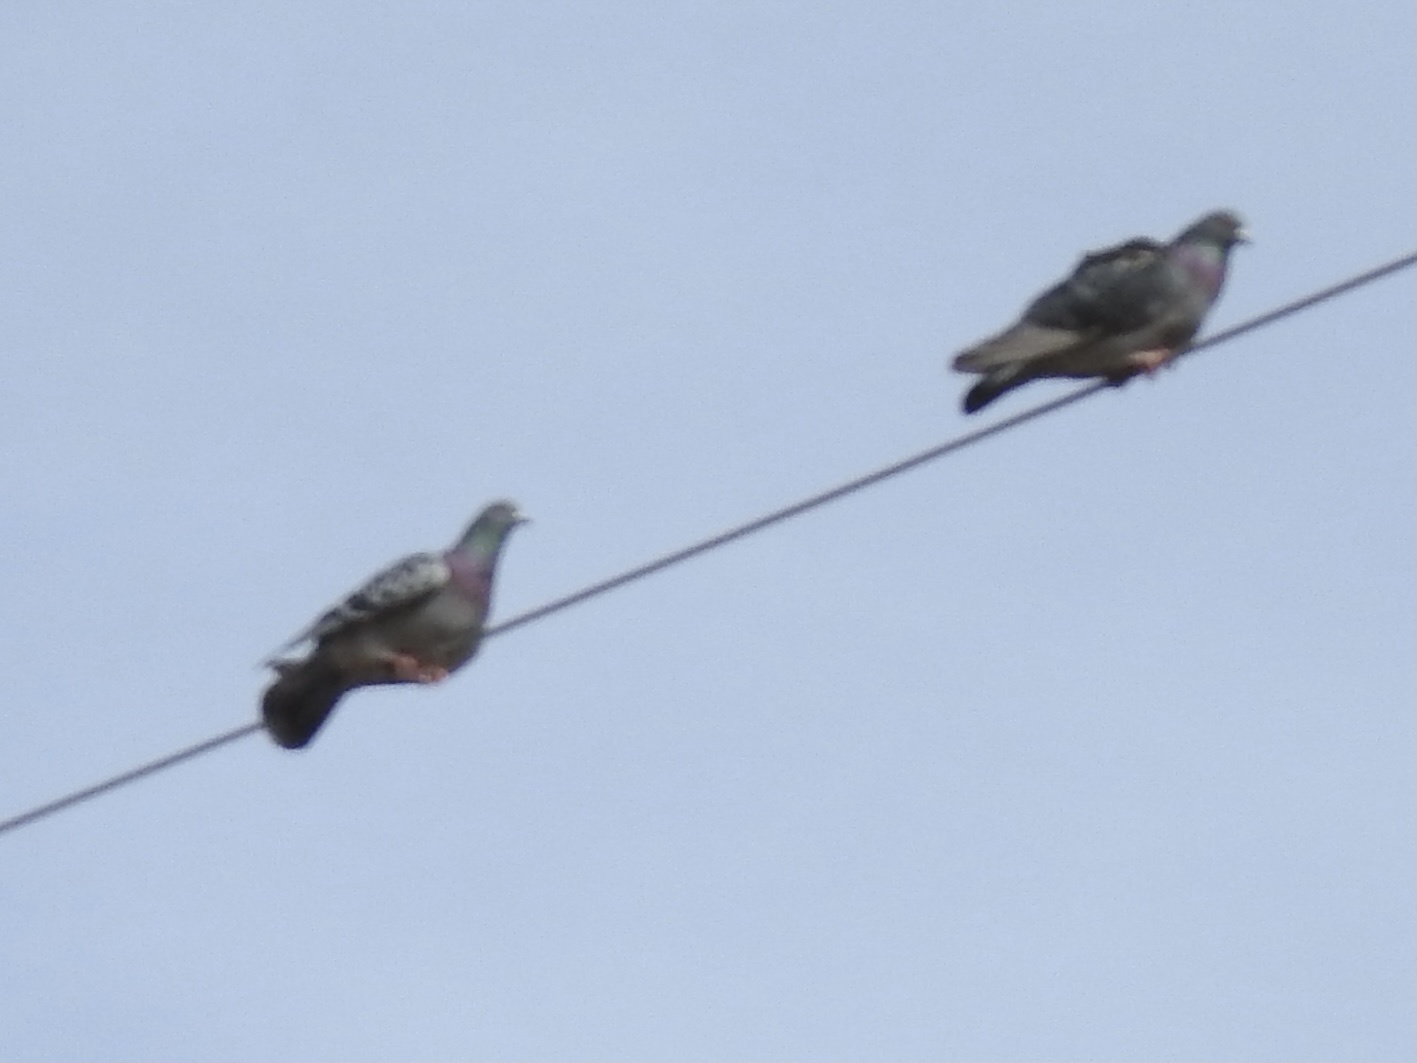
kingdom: Animalia
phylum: Chordata
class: Aves
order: Columbiformes
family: Columbidae
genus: Columba
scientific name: Columba livia
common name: Rock pigeon
